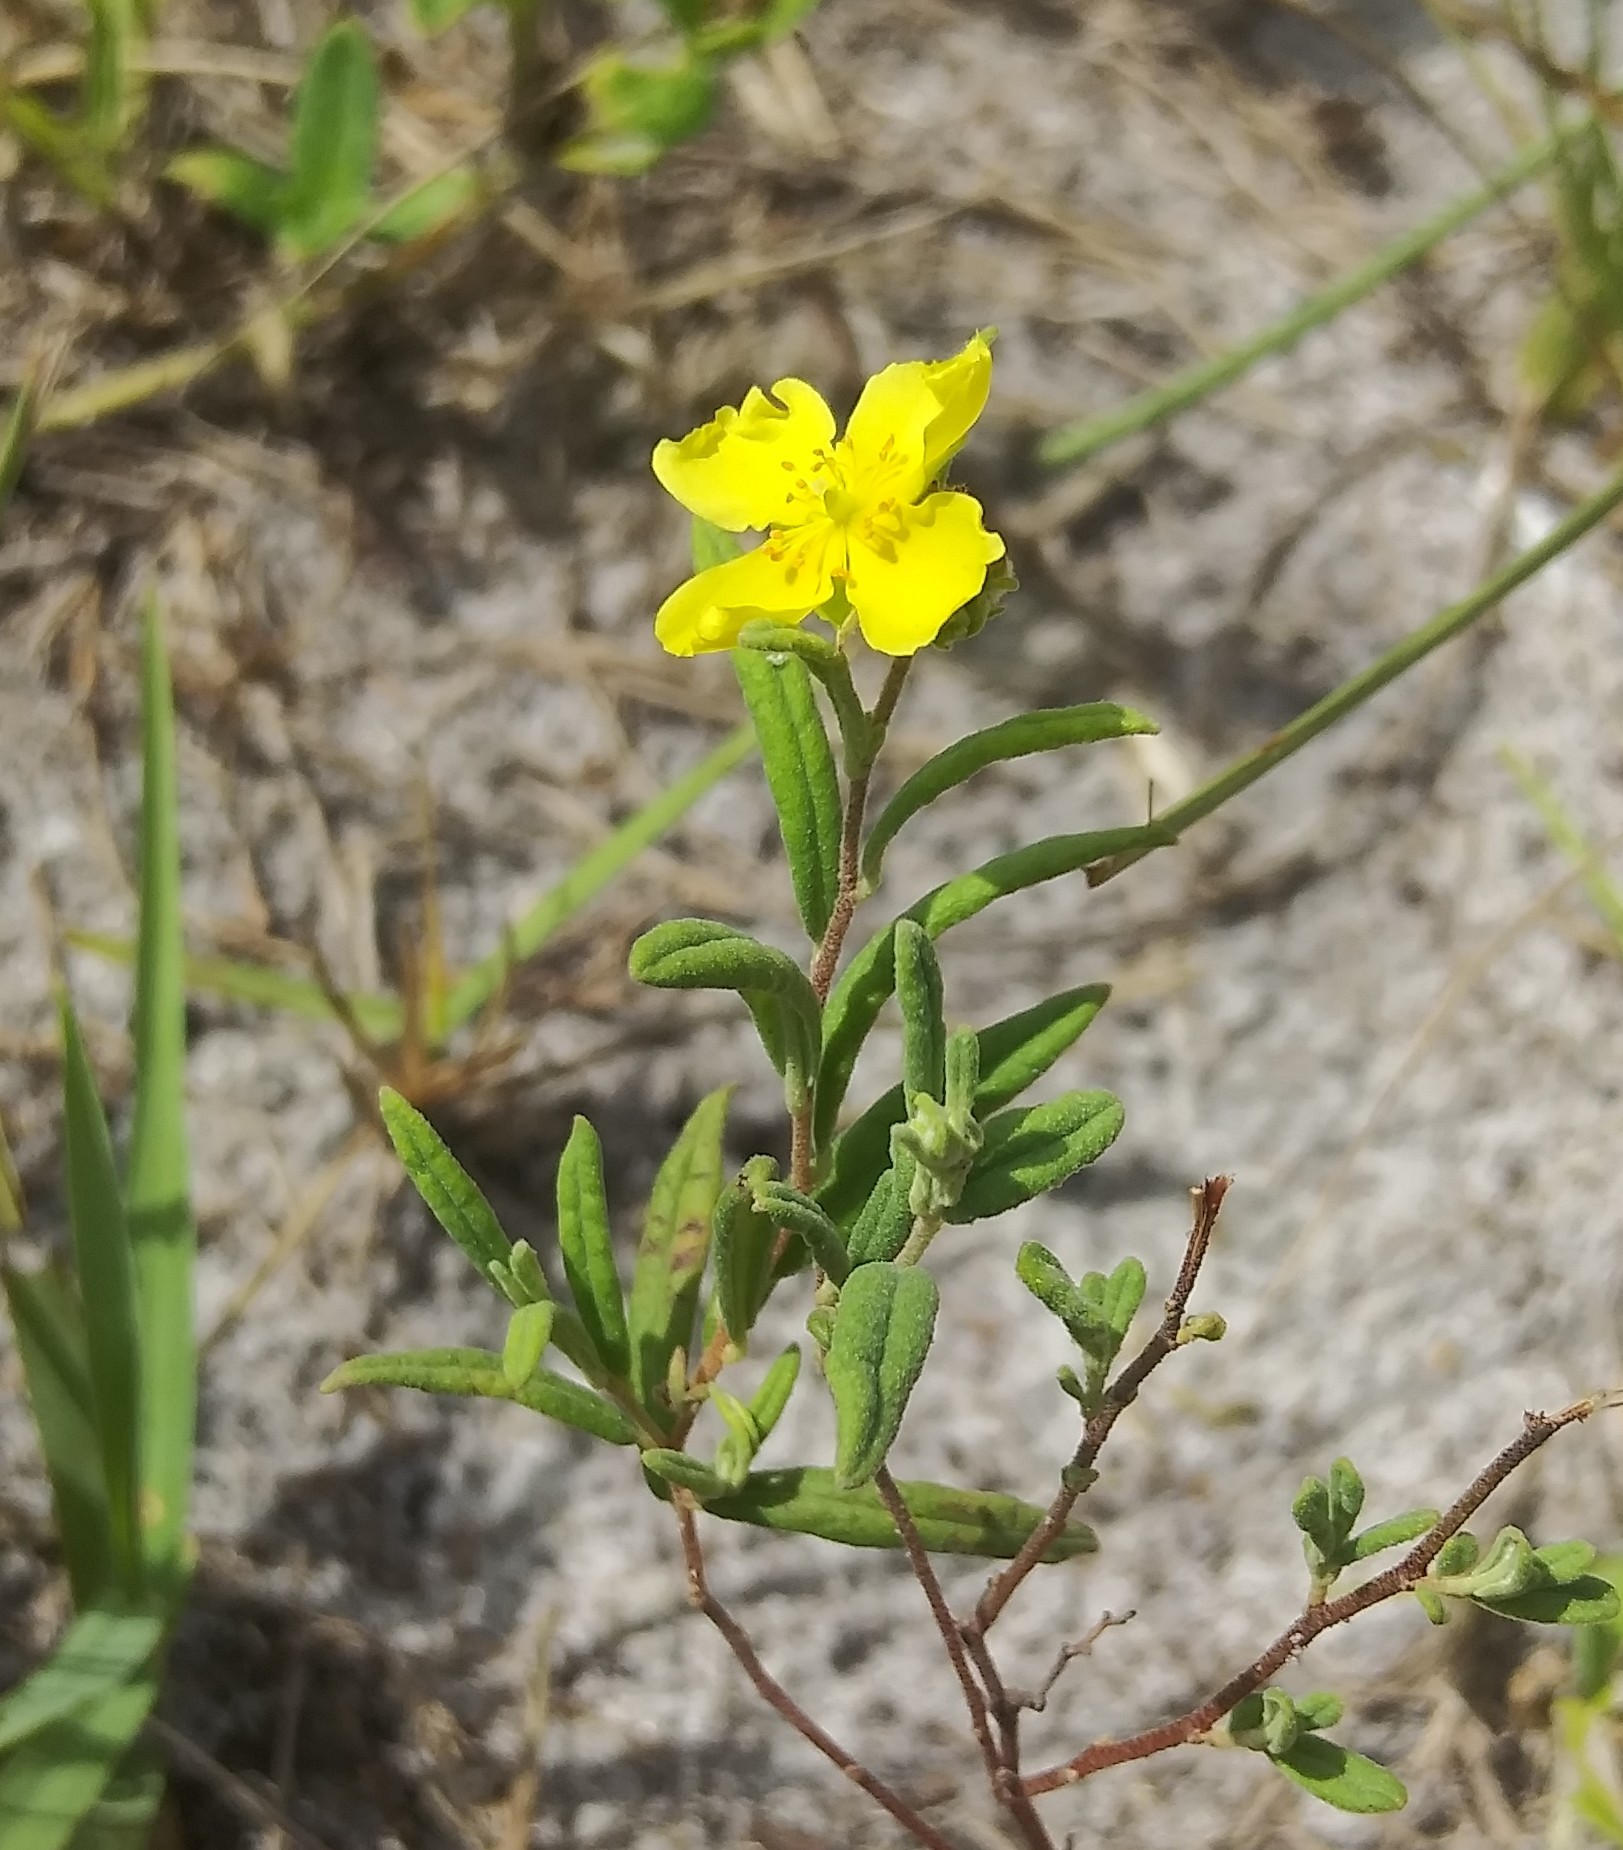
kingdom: Plantae
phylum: Tracheophyta
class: Magnoliopsida
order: Malvales
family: Cistaceae
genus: Crocanthemum
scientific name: Crocanthemum corymbosum
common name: Pinebarren sun-rose
